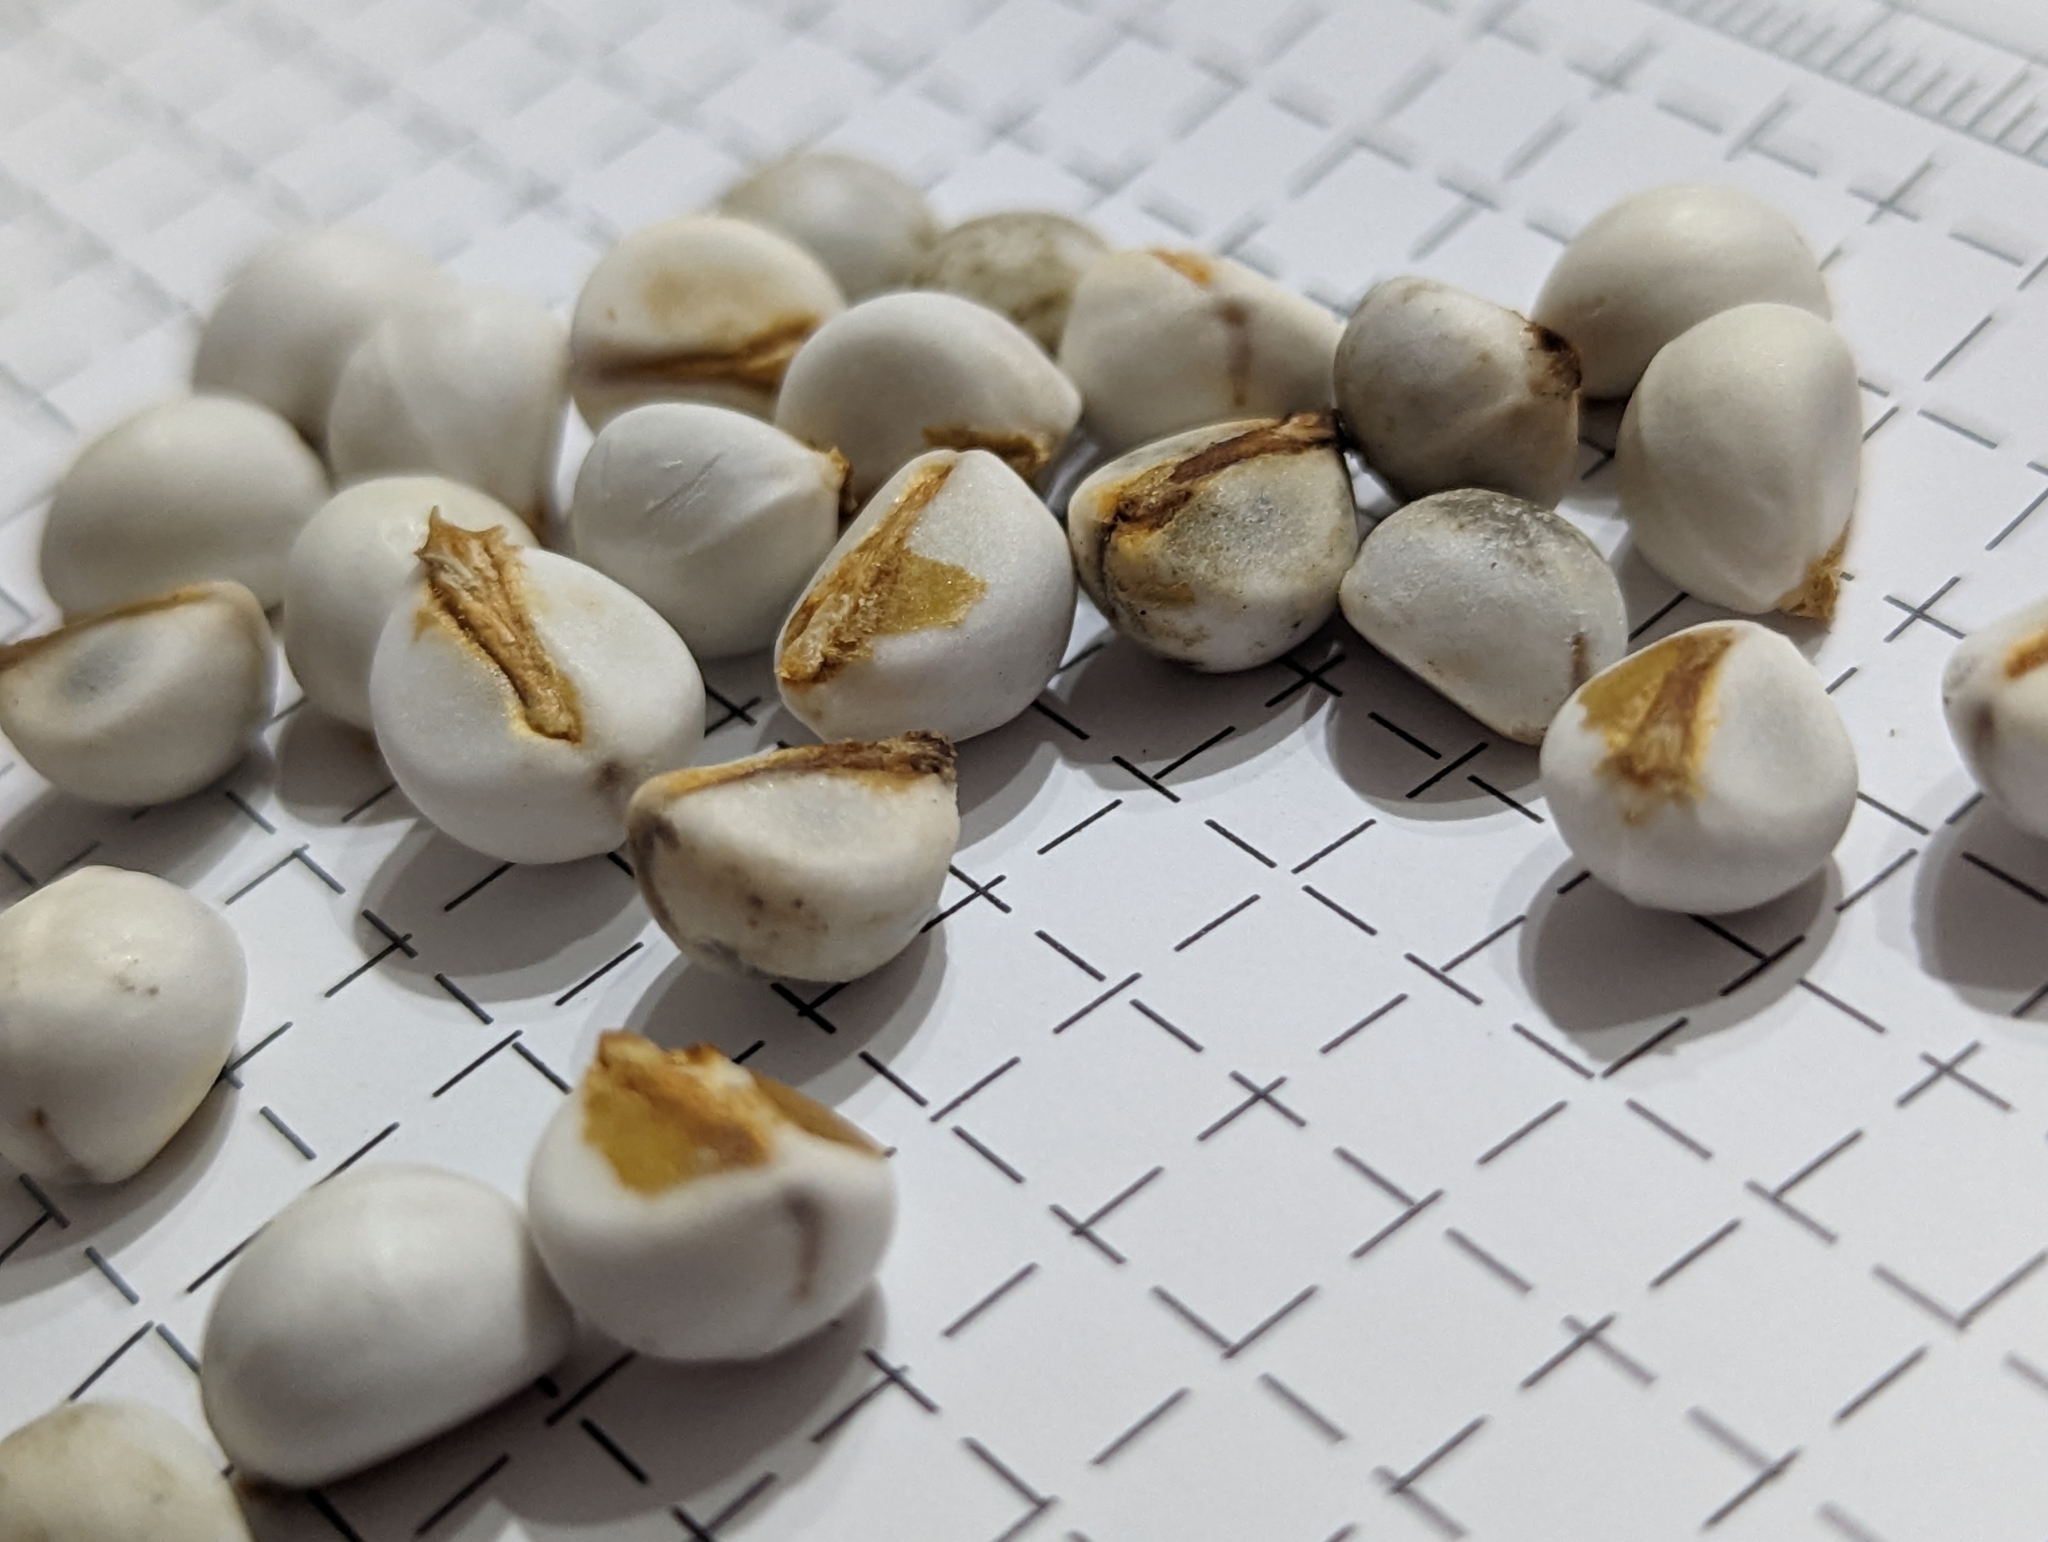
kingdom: Plantae
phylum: Tracheophyta
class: Magnoliopsida
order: Malpighiales
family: Euphorbiaceae
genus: Triadica
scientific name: Triadica sebifera
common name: Chinese tallow
